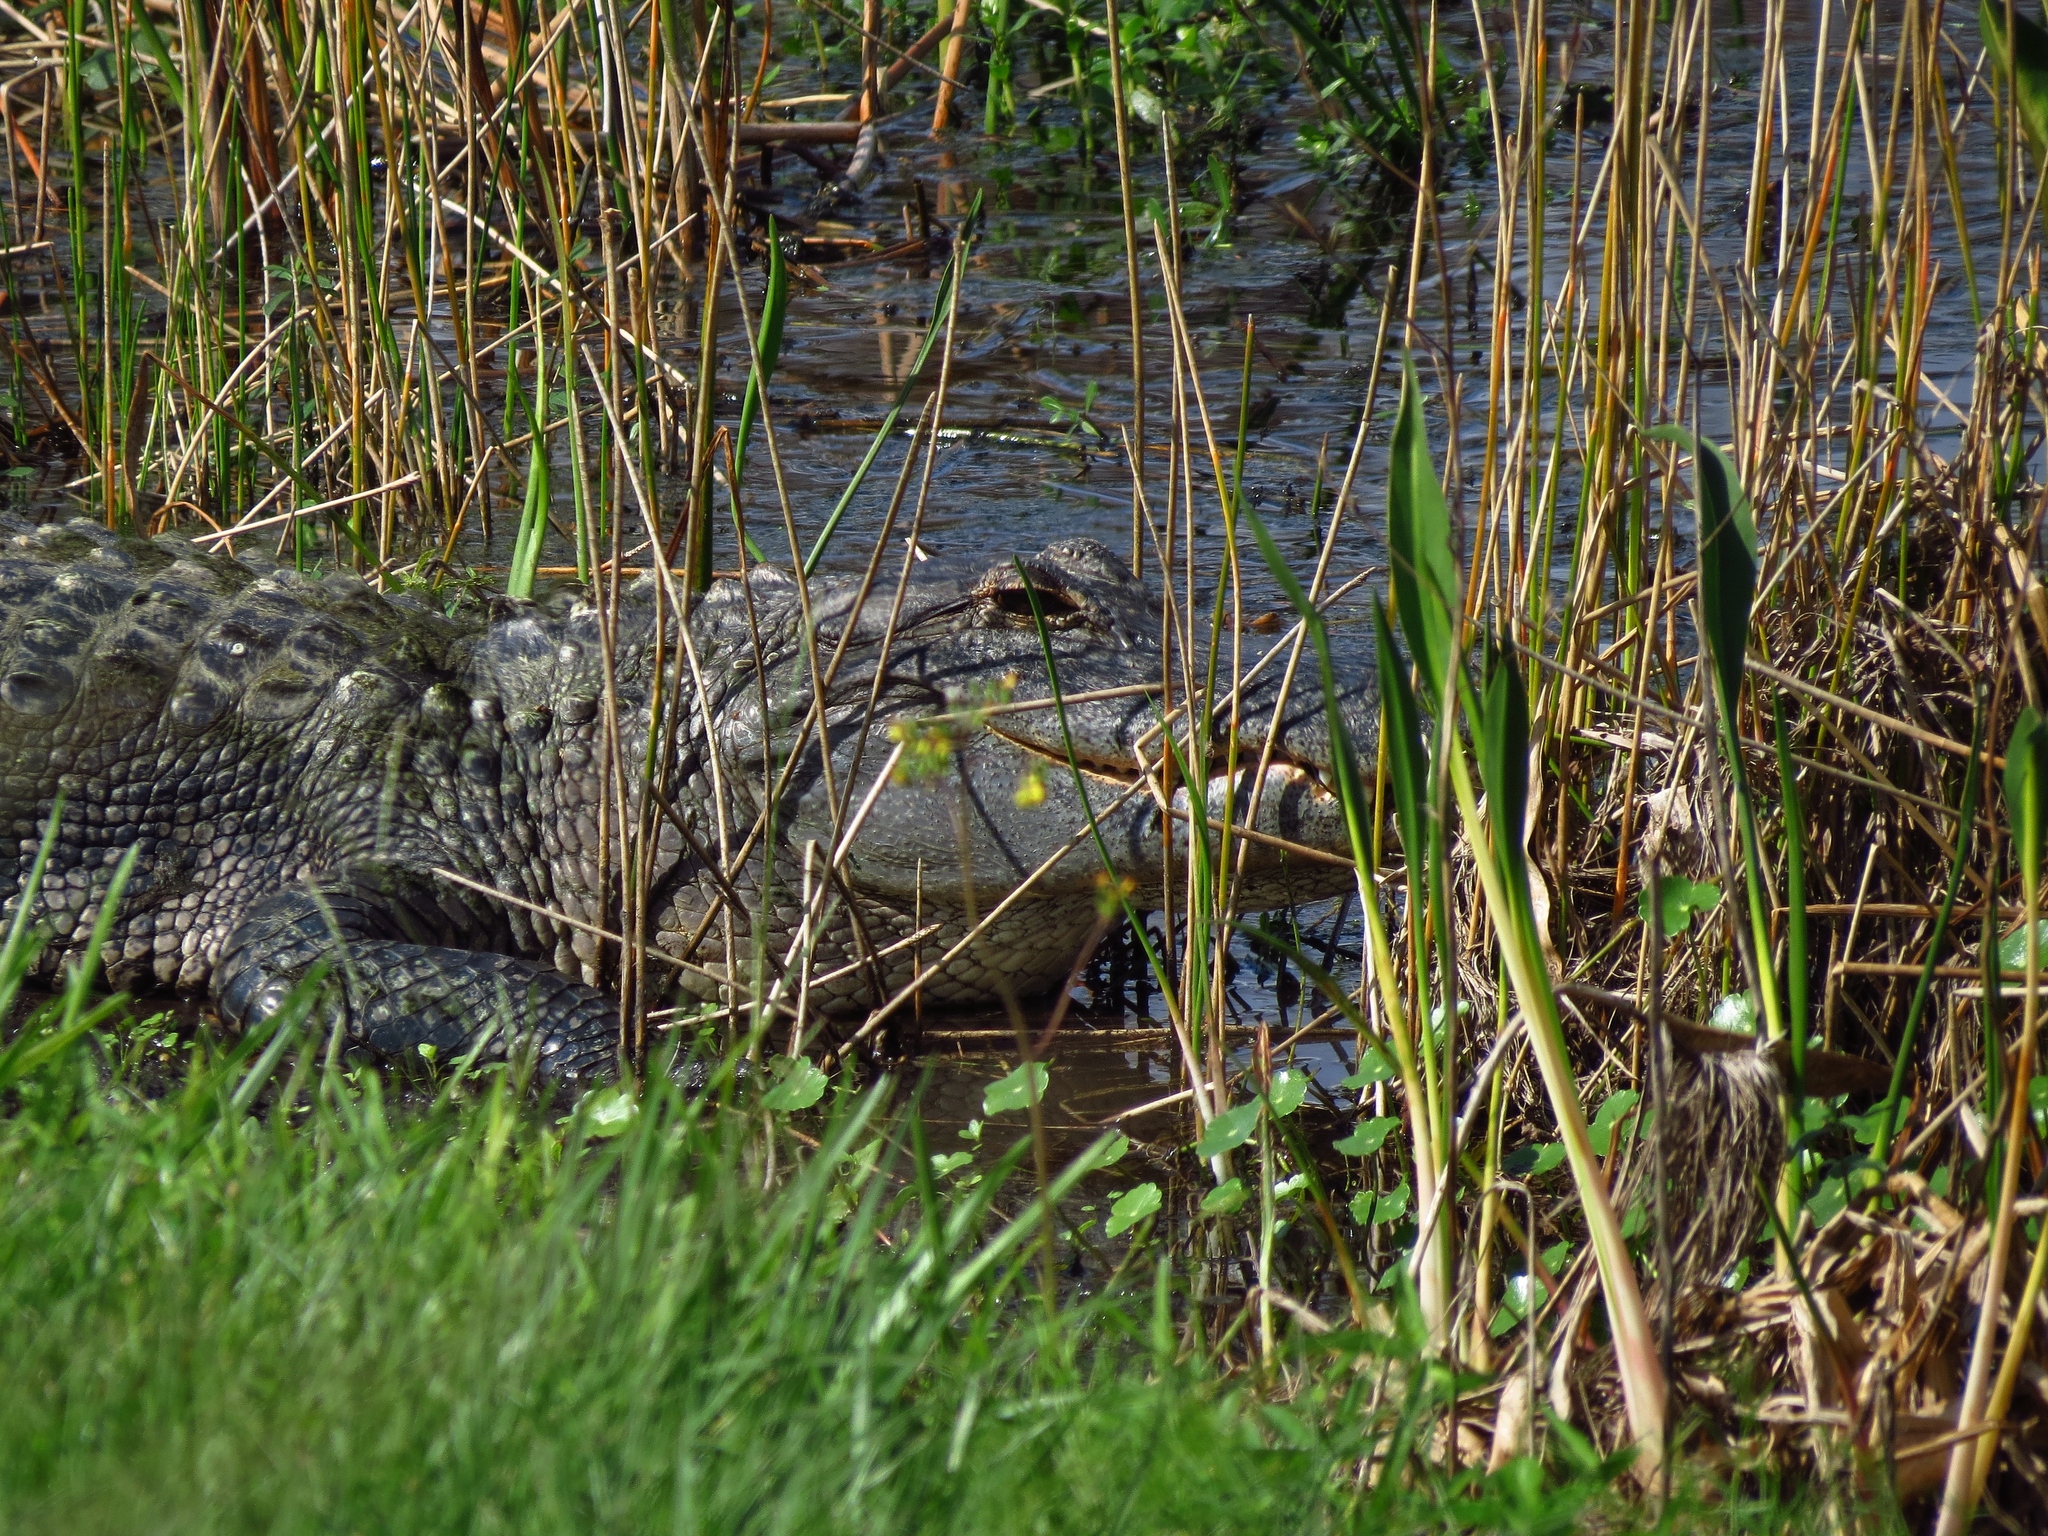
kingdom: Animalia
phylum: Chordata
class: Crocodylia
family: Alligatoridae
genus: Alligator
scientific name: Alligator mississippiensis
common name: American alligator
